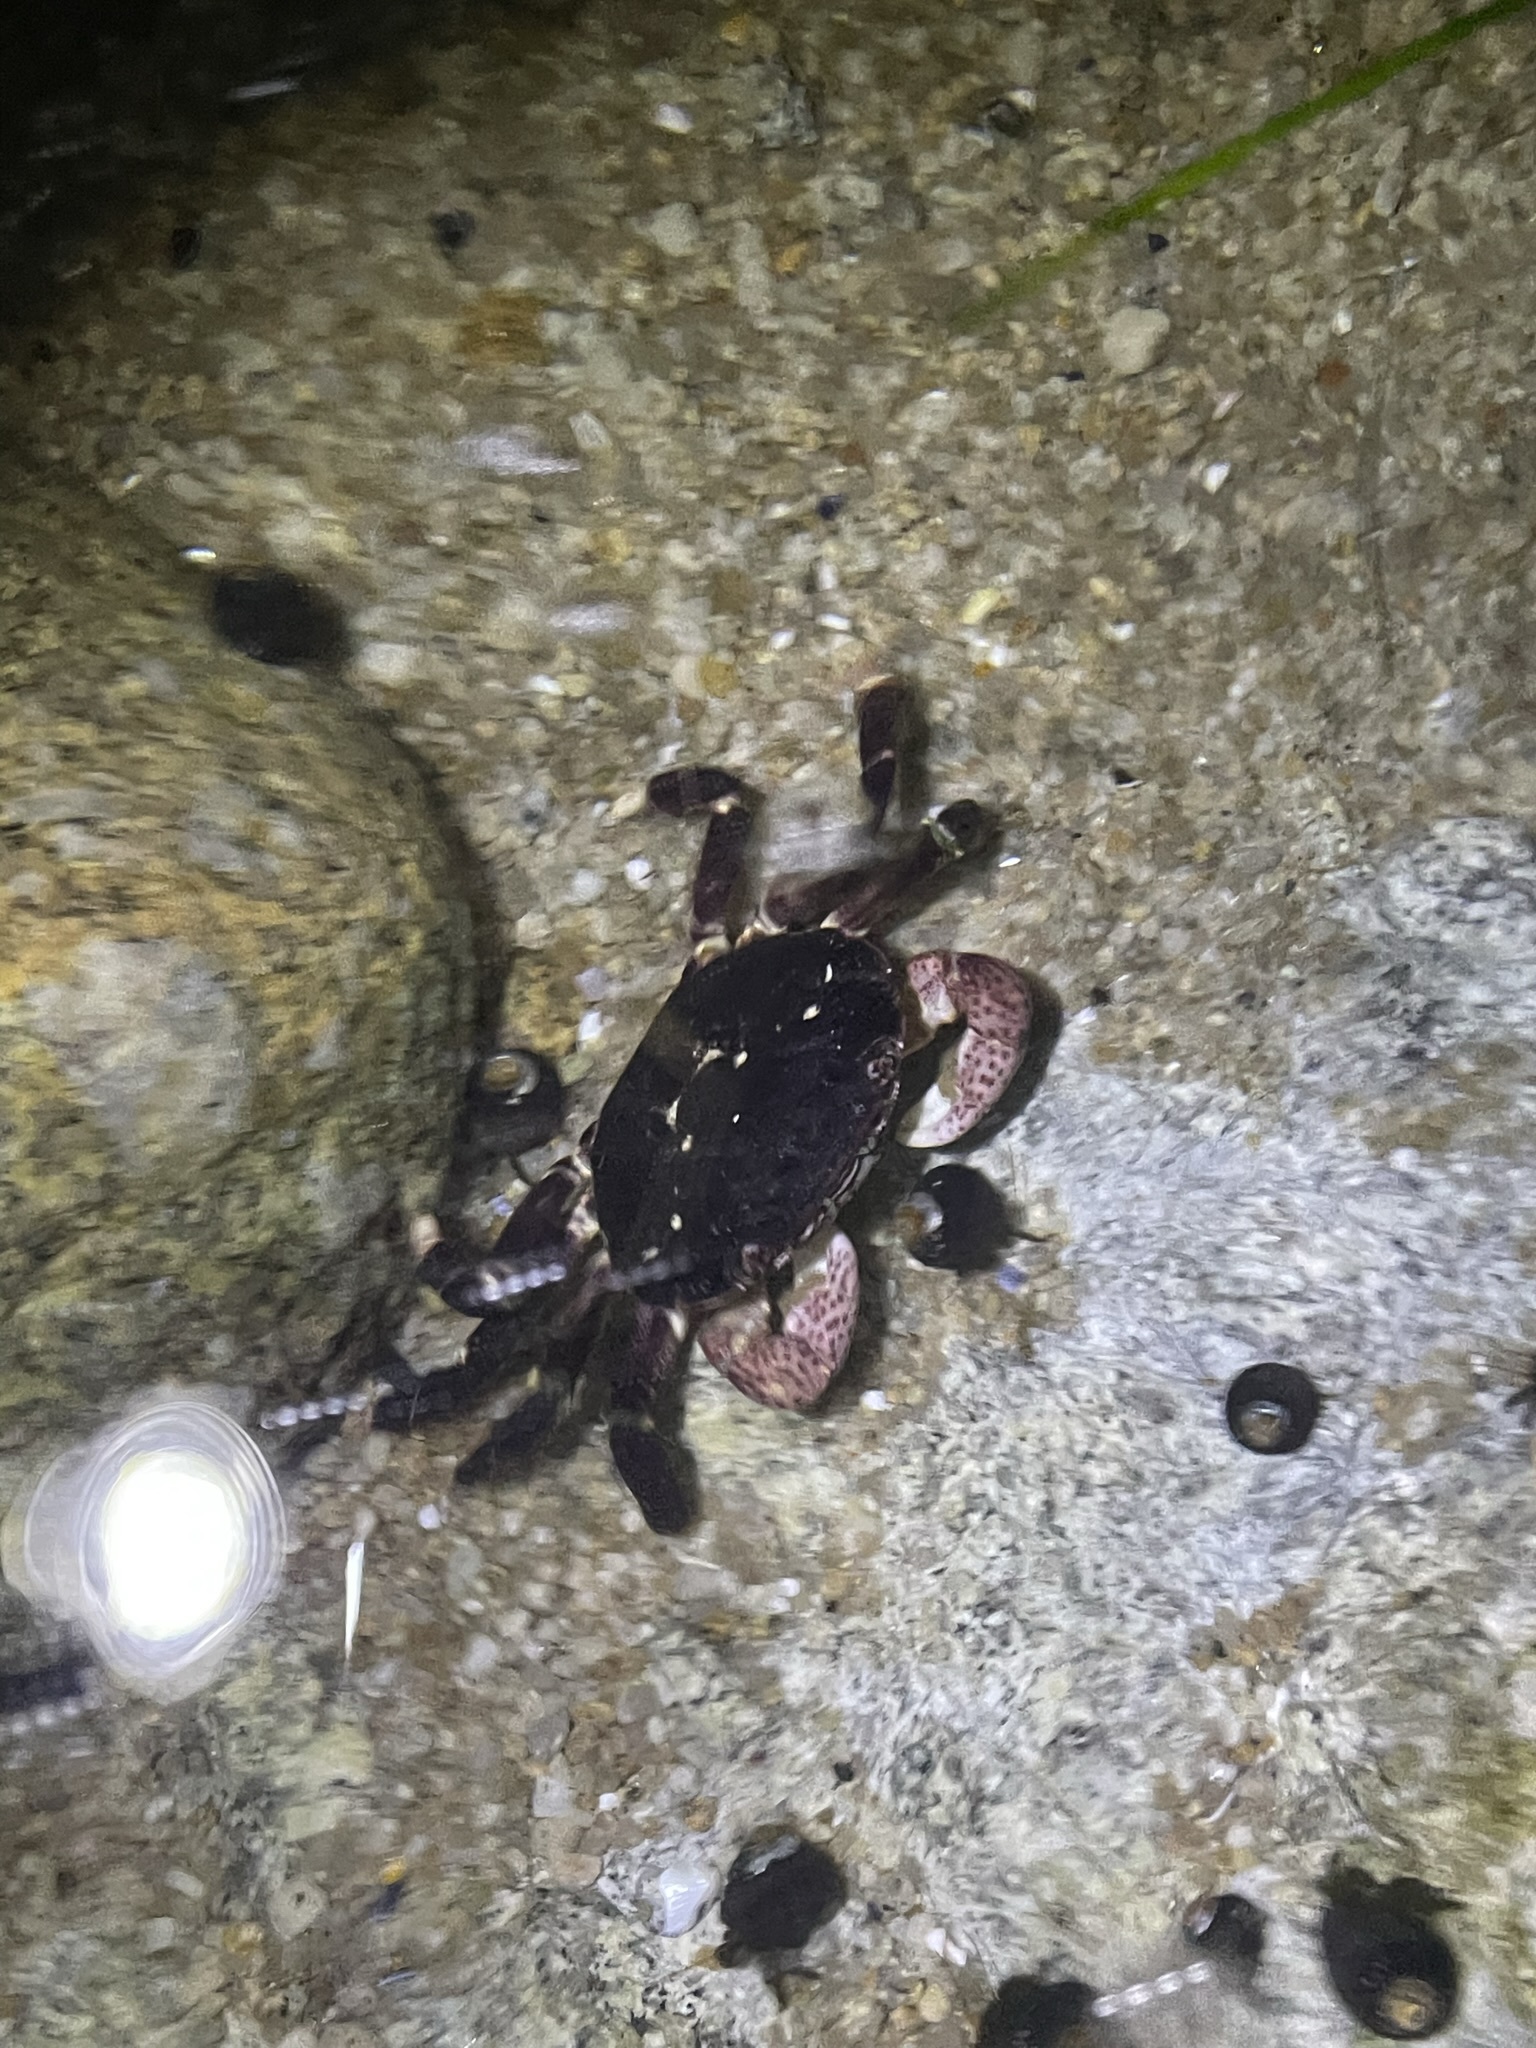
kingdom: Animalia
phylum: Arthropoda
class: Malacostraca
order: Decapoda
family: Varunidae
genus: Hemigrapsus
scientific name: Hemigrapsus nudus
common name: Purple shore crab
